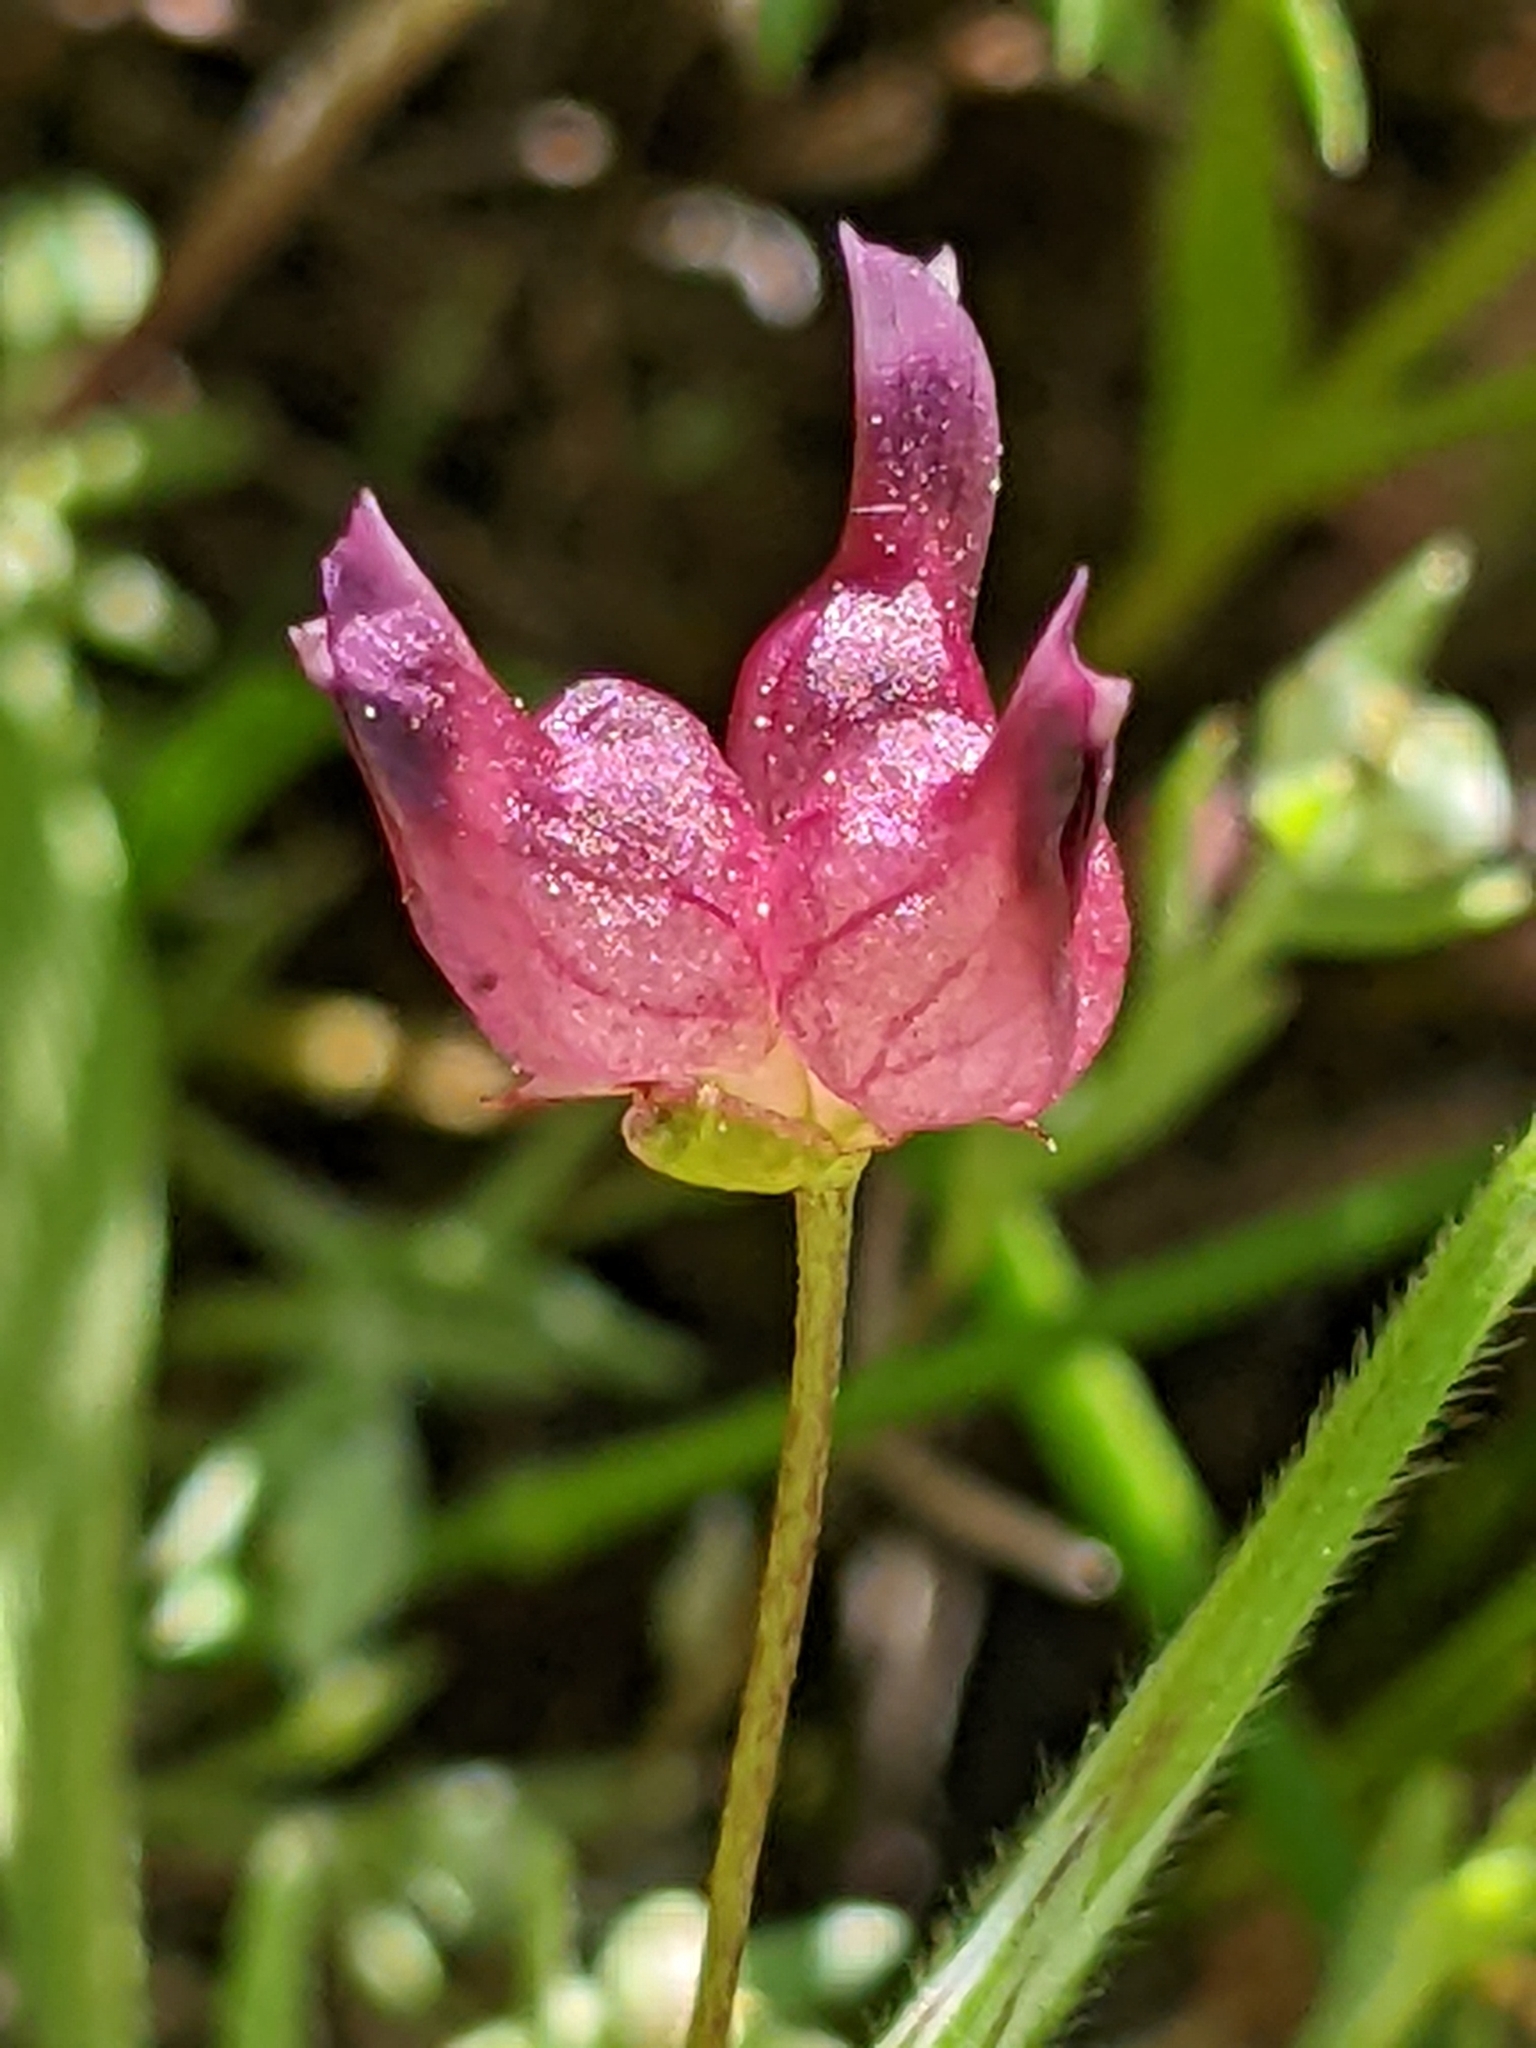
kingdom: Plantae
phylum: Tracheophyta
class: Magnoliopsida
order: Fabales
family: Fabaceae
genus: Trifolium
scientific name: Trifolium depauperatum
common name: Poverty clover
